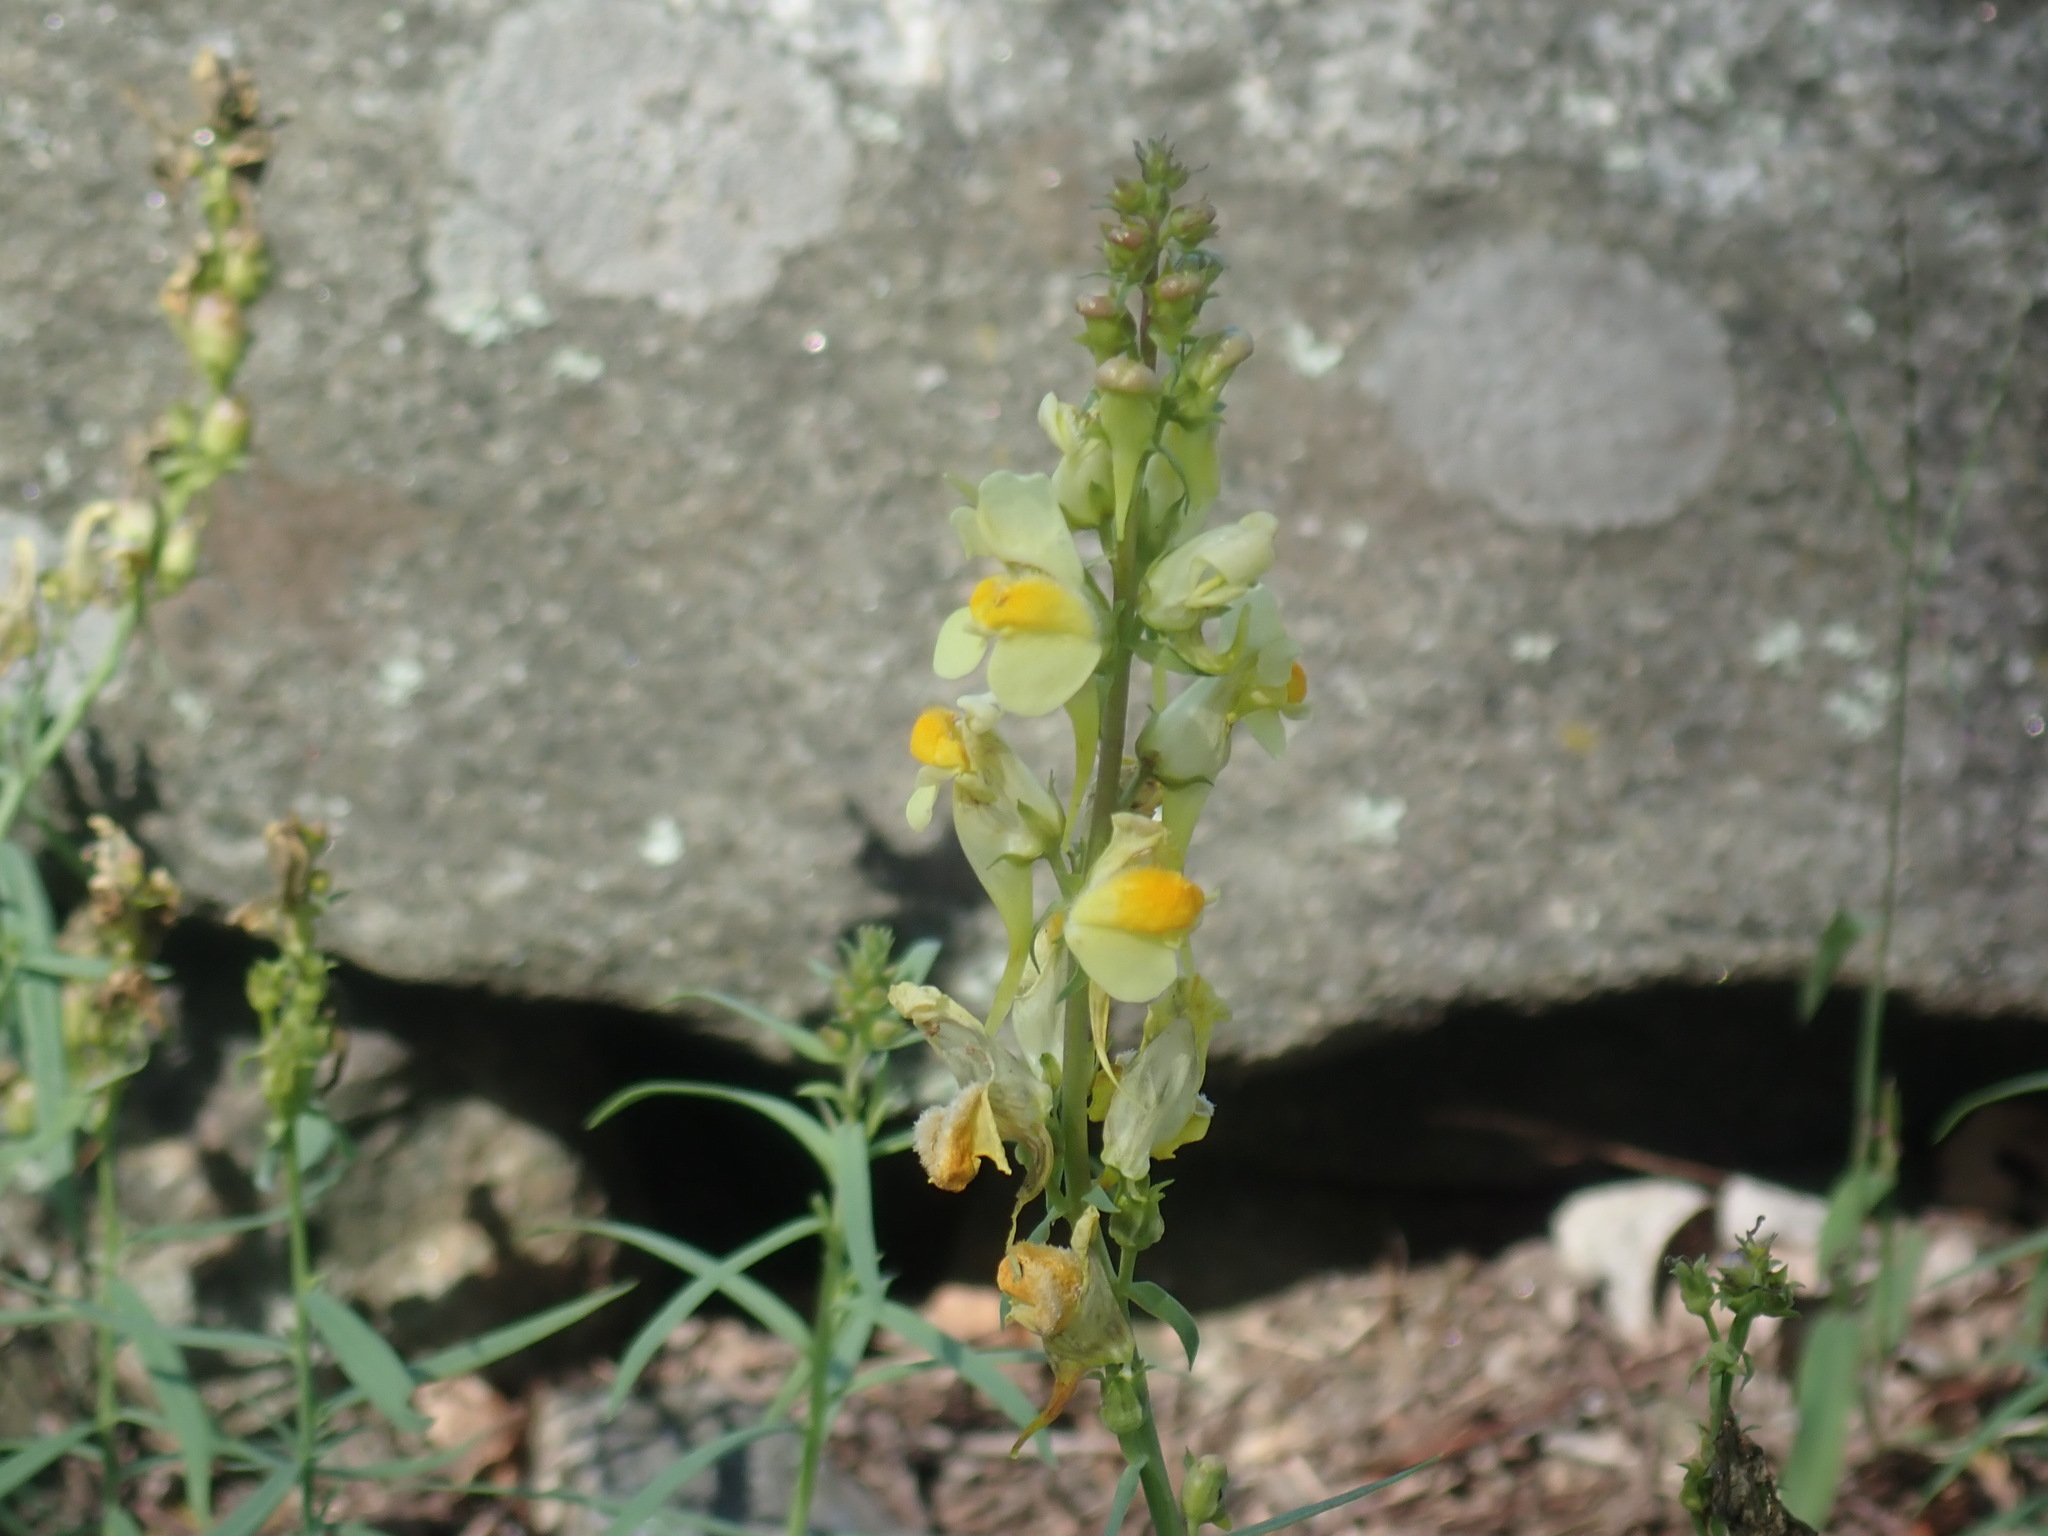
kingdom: Plantae
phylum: Tracheophyta
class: Magnoliopsida
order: Lamiales
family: Plantaginaceae
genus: Linaria
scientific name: Linaria vulgaris
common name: Butter and eggs
